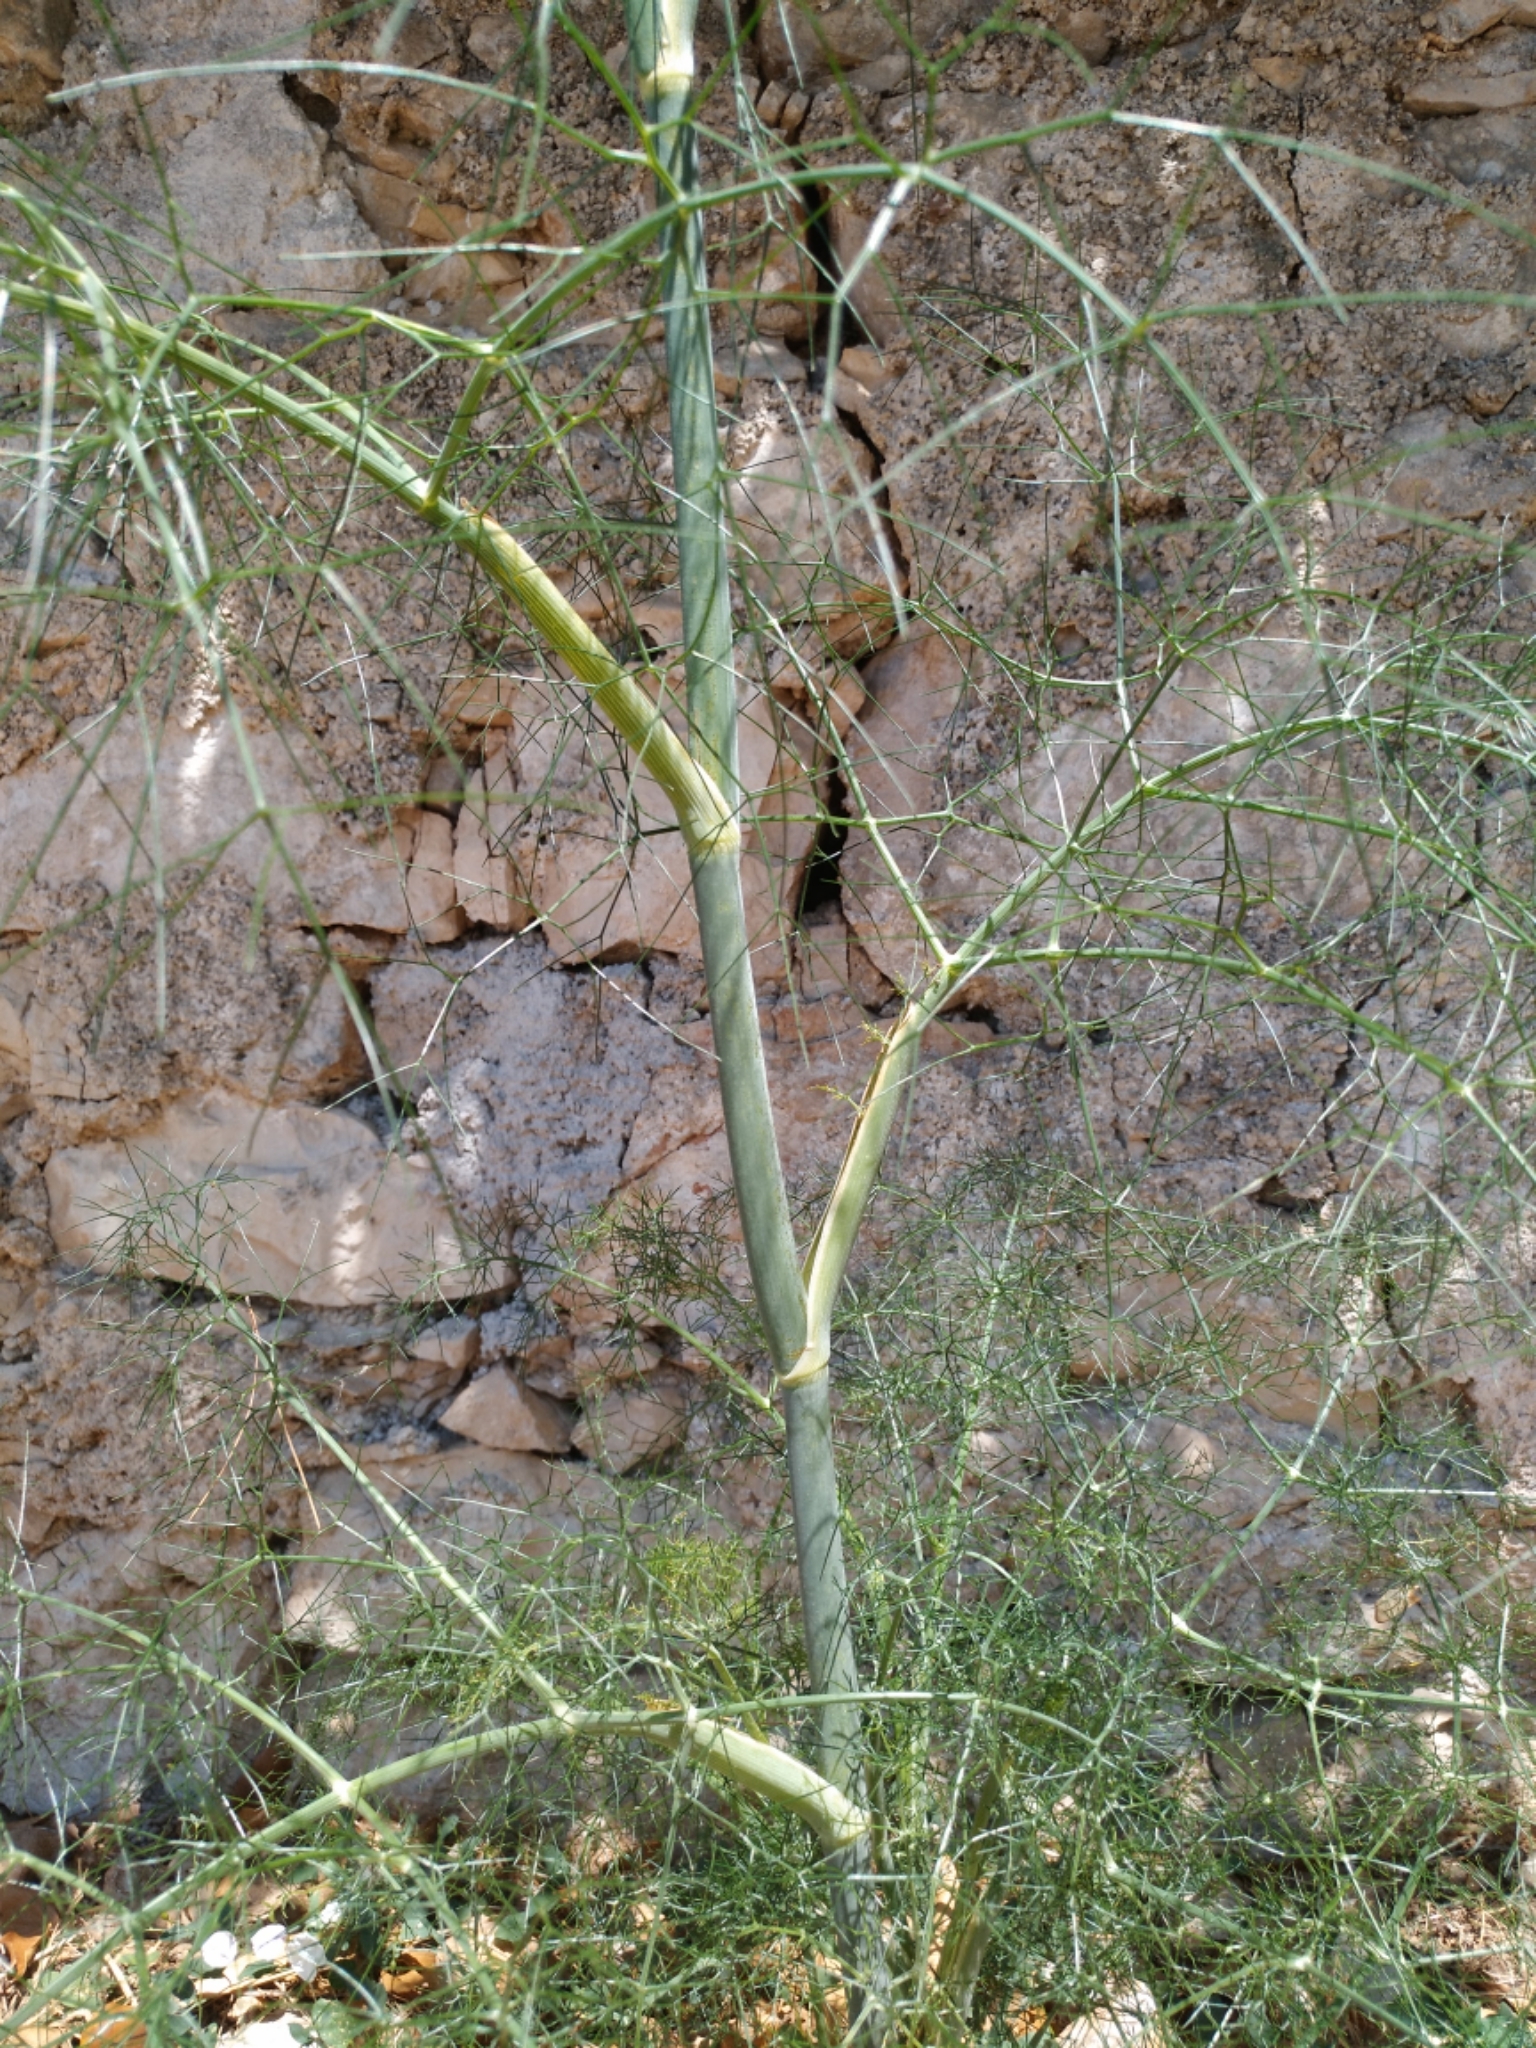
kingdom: Plantae
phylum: Tracheophyta
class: Magnoliopsida
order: Apiales
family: Apiaceae
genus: Foeniculum
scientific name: Foeniculum vulgare
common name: Fennel
